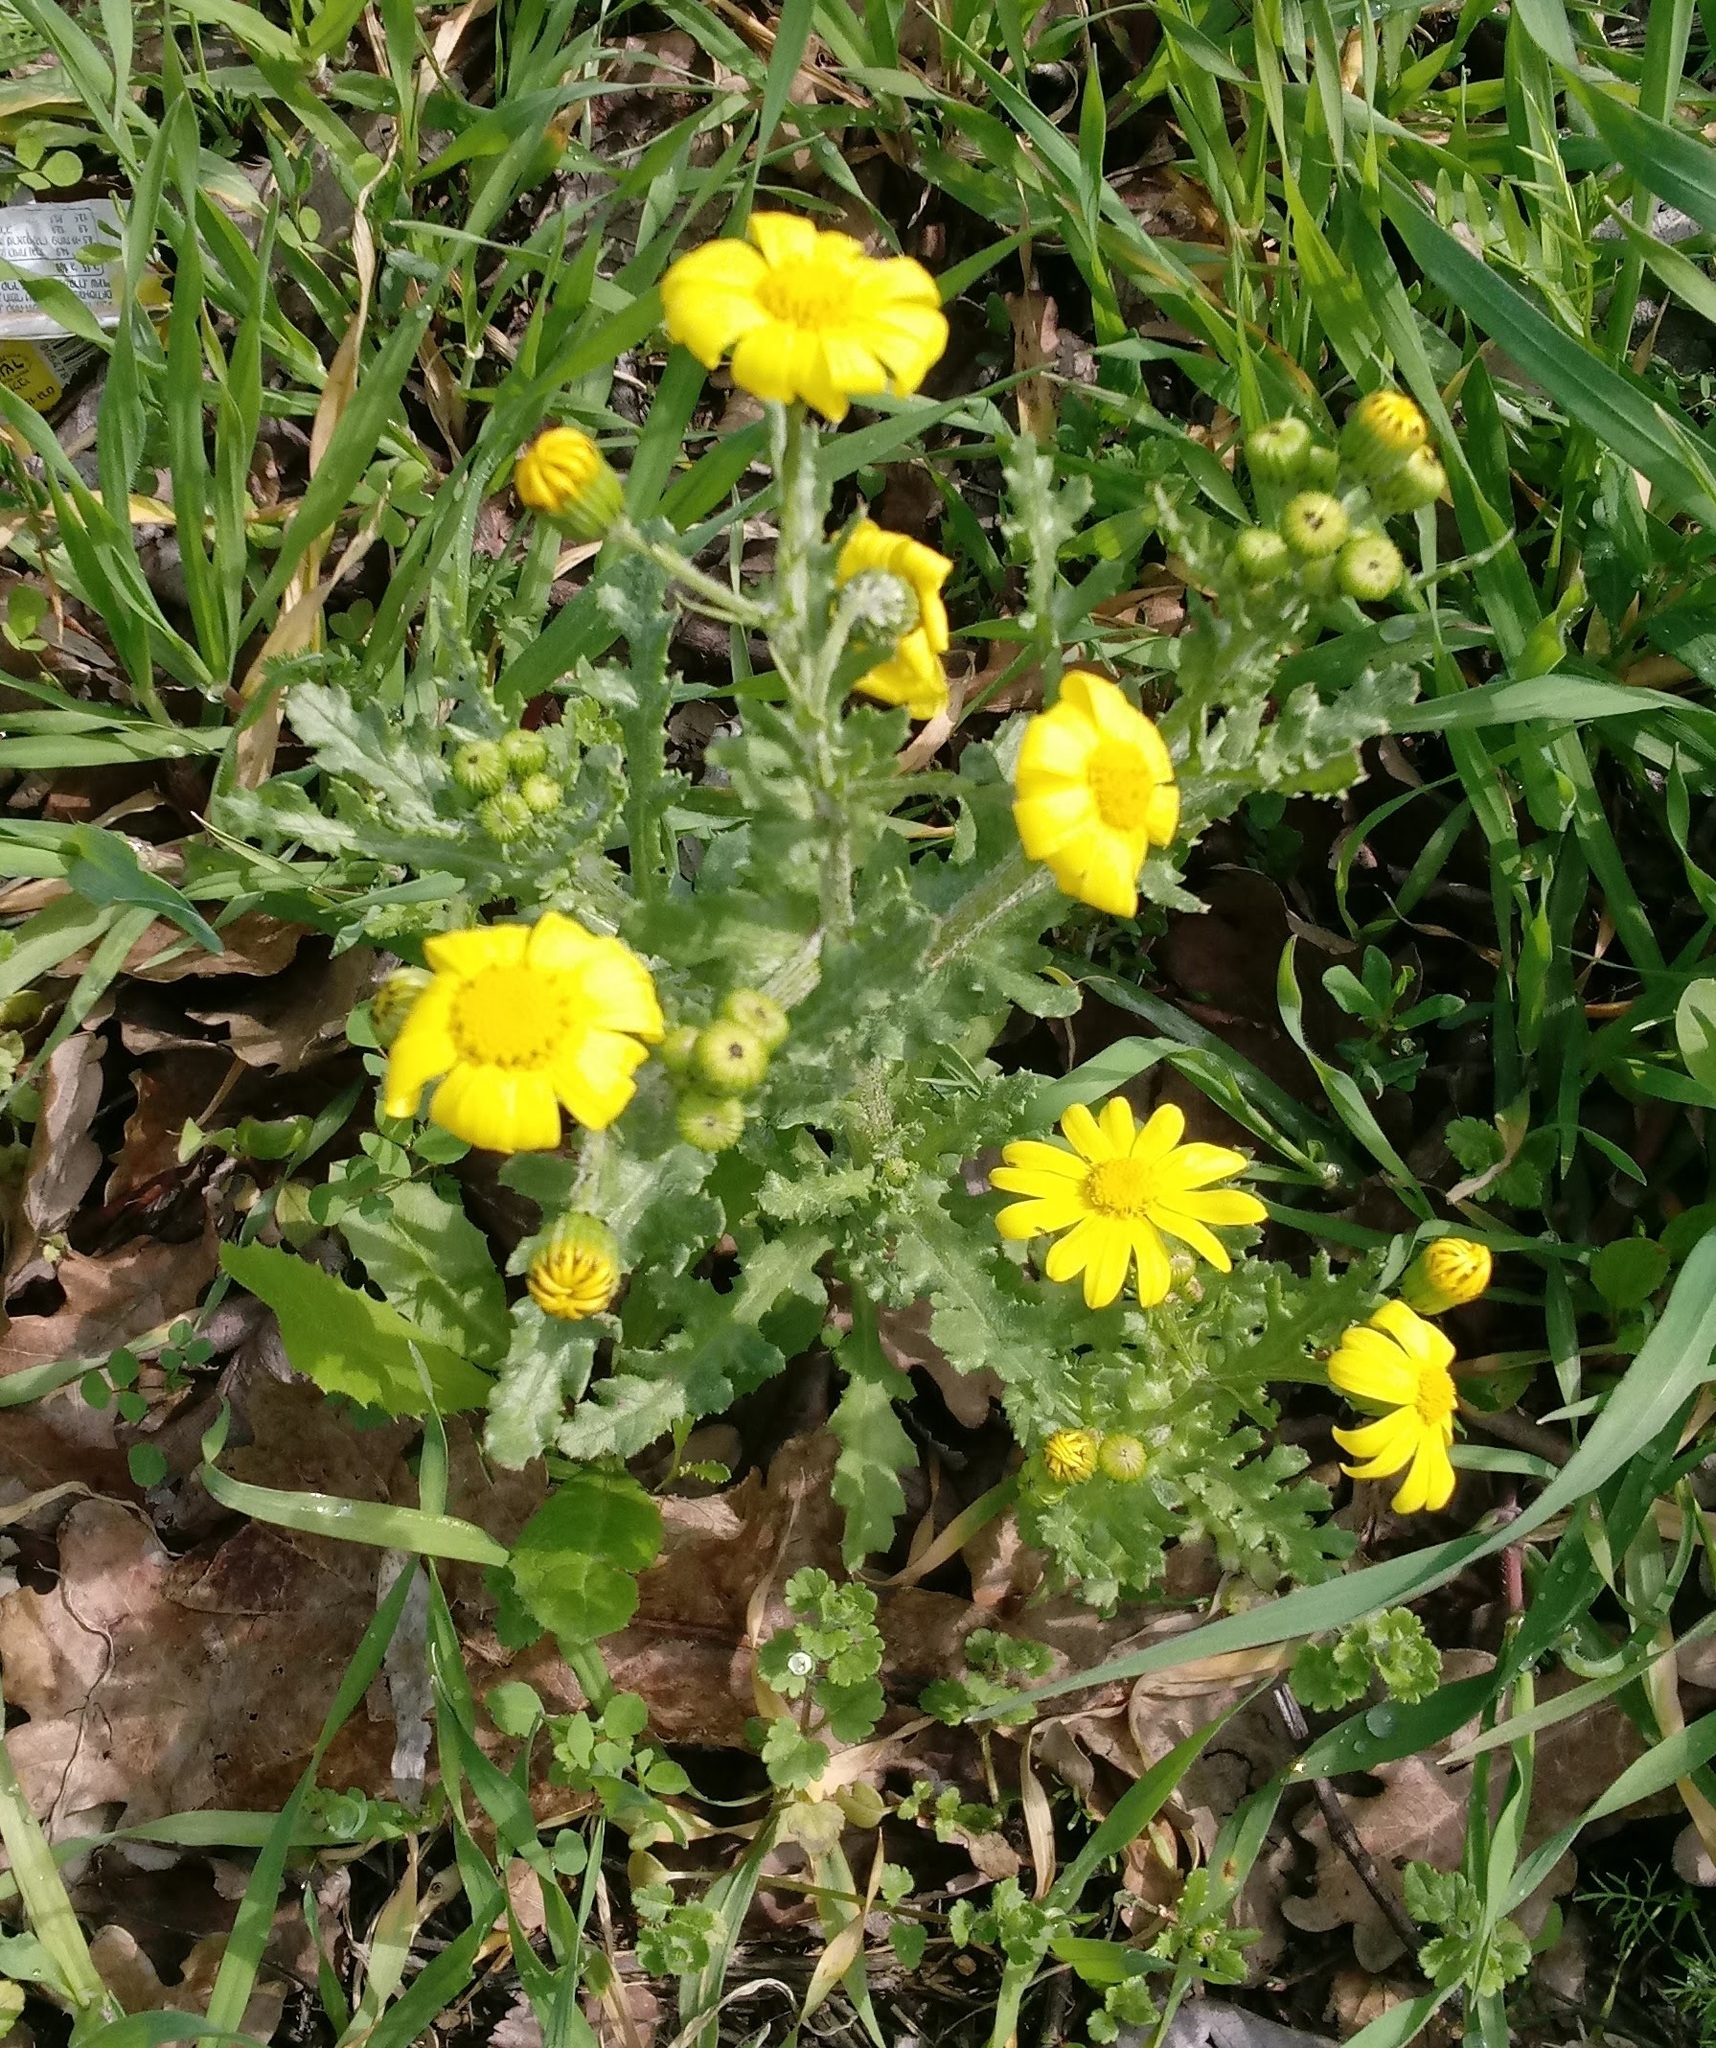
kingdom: Plantae
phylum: Tracheophyta
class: Magnoliopsida
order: Asterales
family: Asteraceae
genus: Senecio
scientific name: Senecio vernalis
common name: Eastern groundsel
